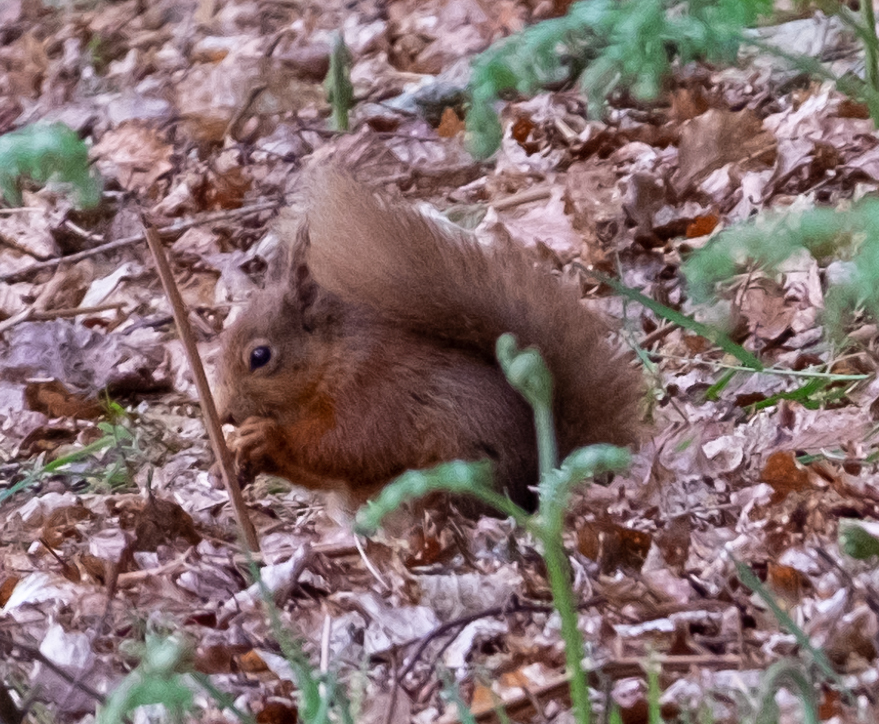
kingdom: Animalia
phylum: Chordata
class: Mammalia
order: Rodentia
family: Sciuridae
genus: Sciurus
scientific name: Sciurus vulgaris
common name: Eurasian red squirrel
